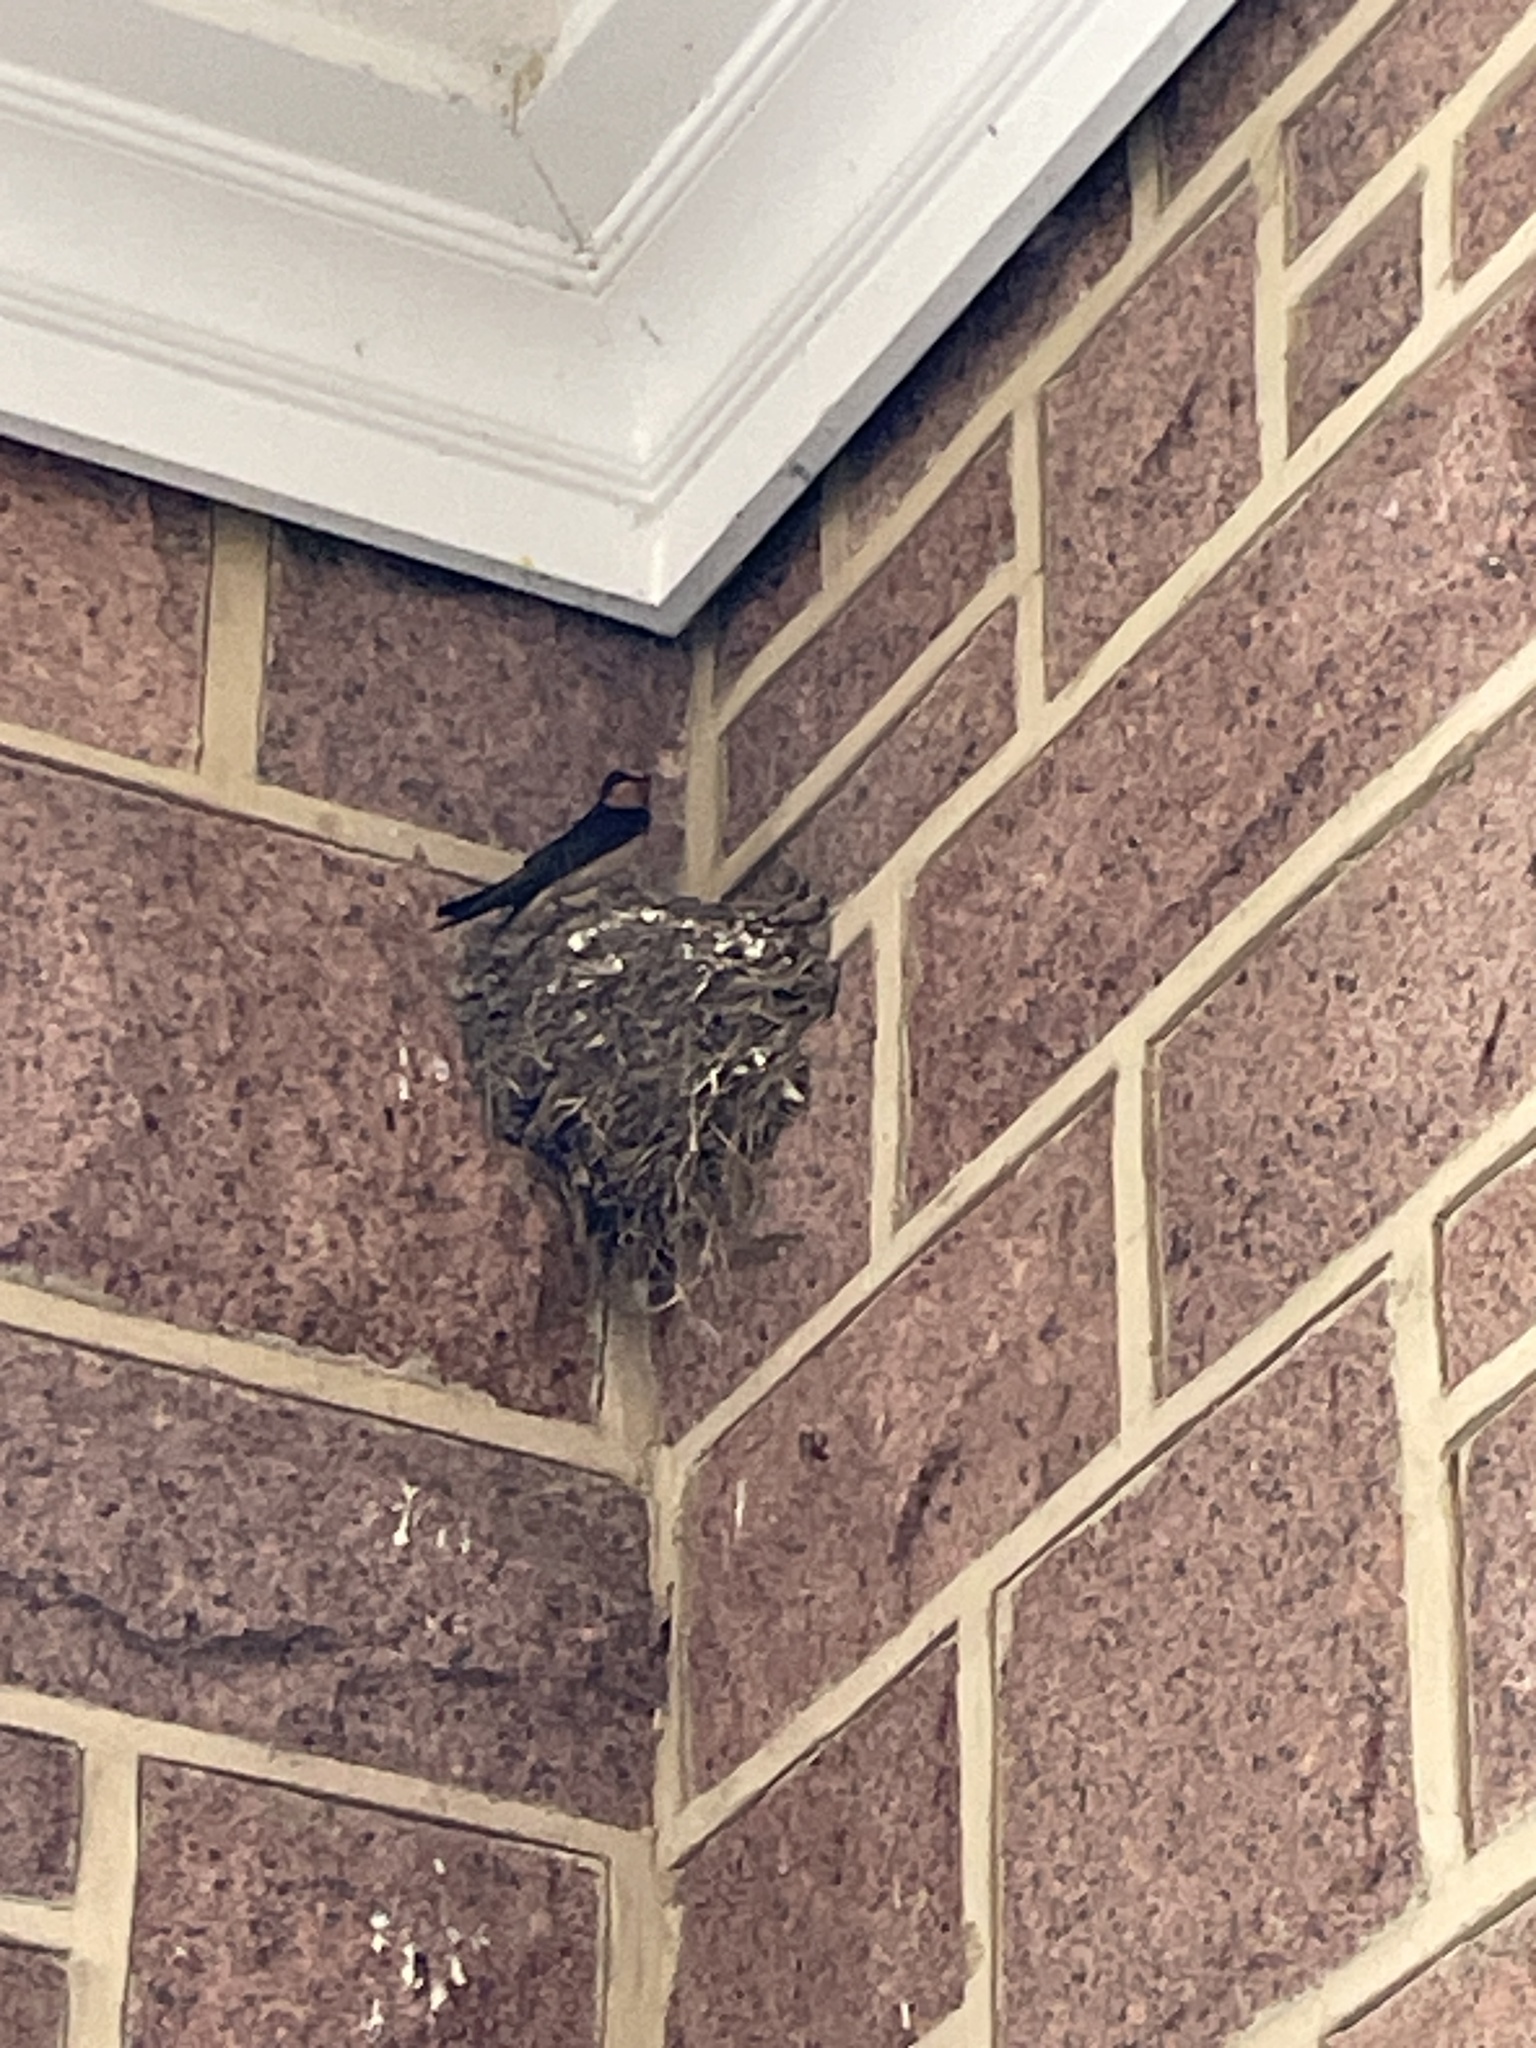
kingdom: Animalia
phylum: Chordata
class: Aves
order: Passeriformes
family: Hirundinidae
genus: Hirundo
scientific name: Hirundo rustica
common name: Barn swallow
